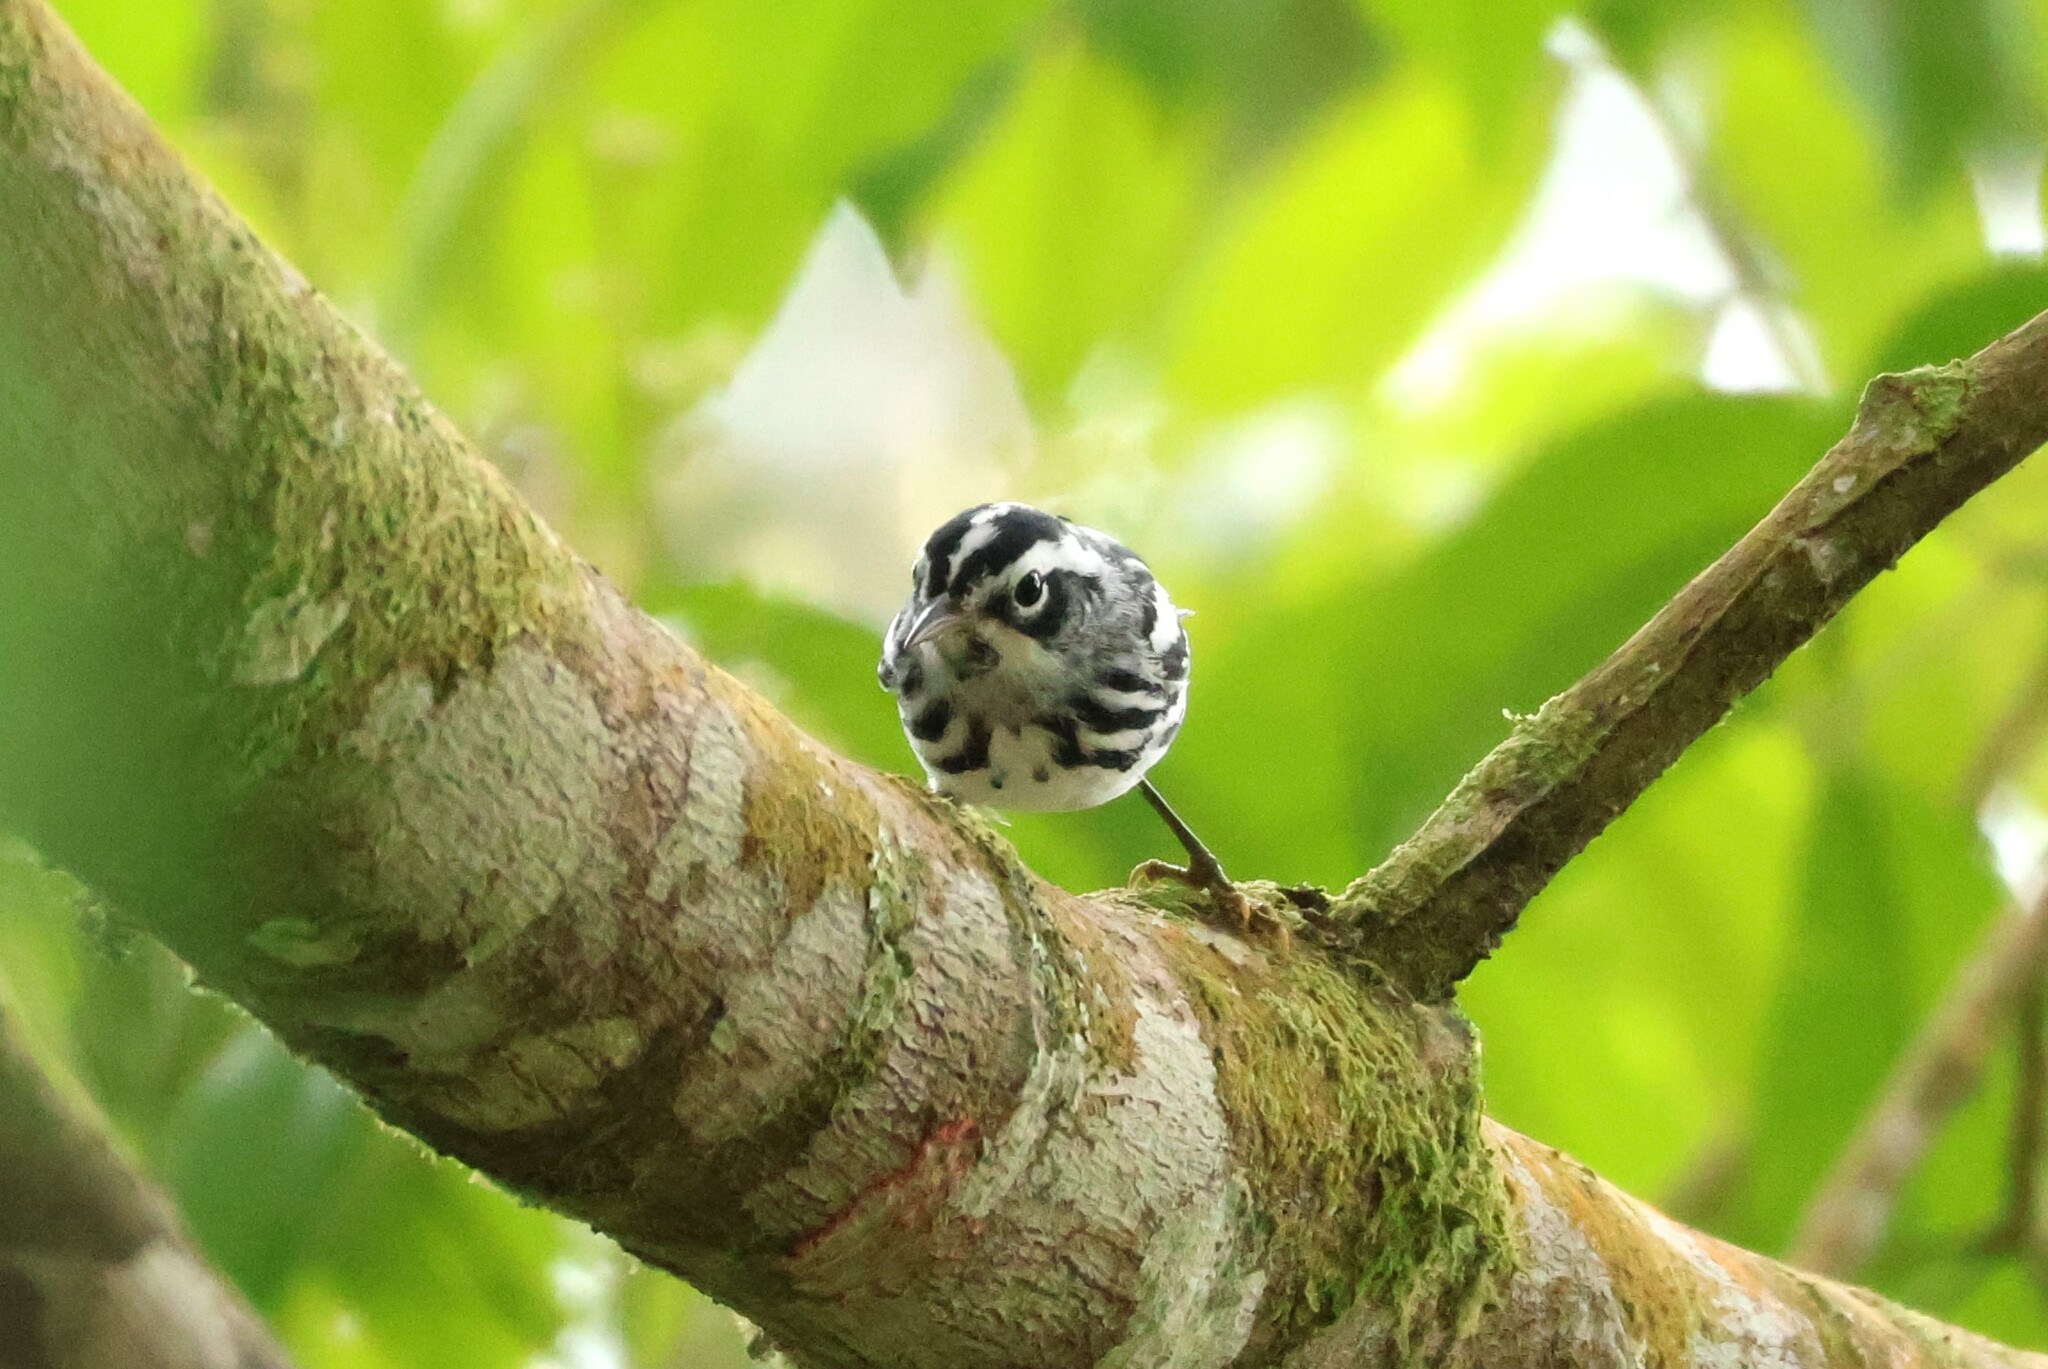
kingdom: Animalia
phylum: Chordata
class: Aves
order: Passeriformes
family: Parulidae
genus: Mniotilta
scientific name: Mniotilta varia
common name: Black-and-white warbler
